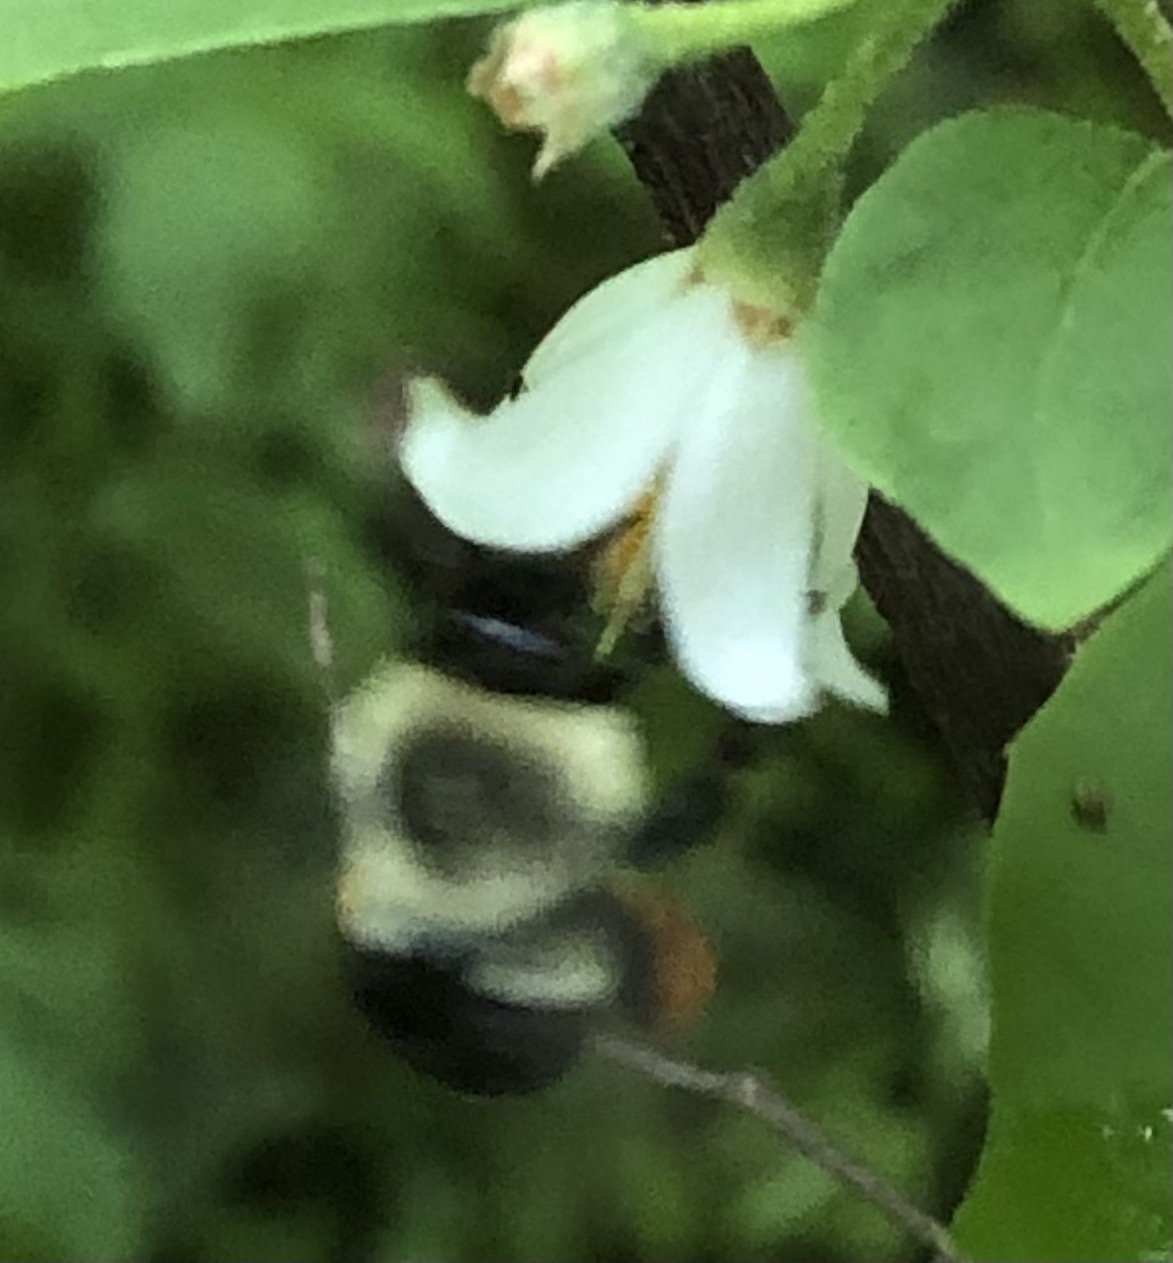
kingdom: Animalia
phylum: Arthropoda
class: Insecta
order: Hymenoptera
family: Apidae
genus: Bombus
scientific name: Bombus impatiens
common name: Common eastern bumble bee
